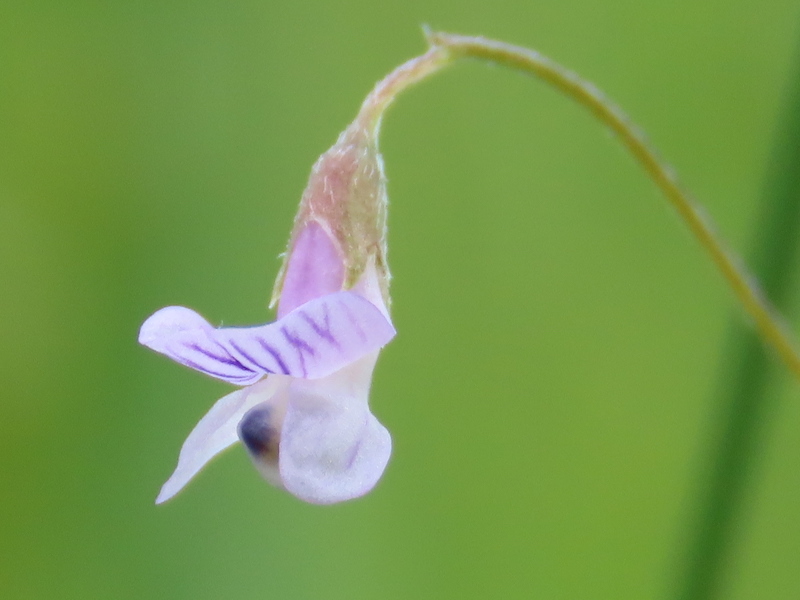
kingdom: Plantae
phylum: Tracheophyta
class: Magnoliopsida
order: Fabales
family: Fabaceae
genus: Vicia
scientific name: Vicia tetrasperma
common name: Smooth tare
